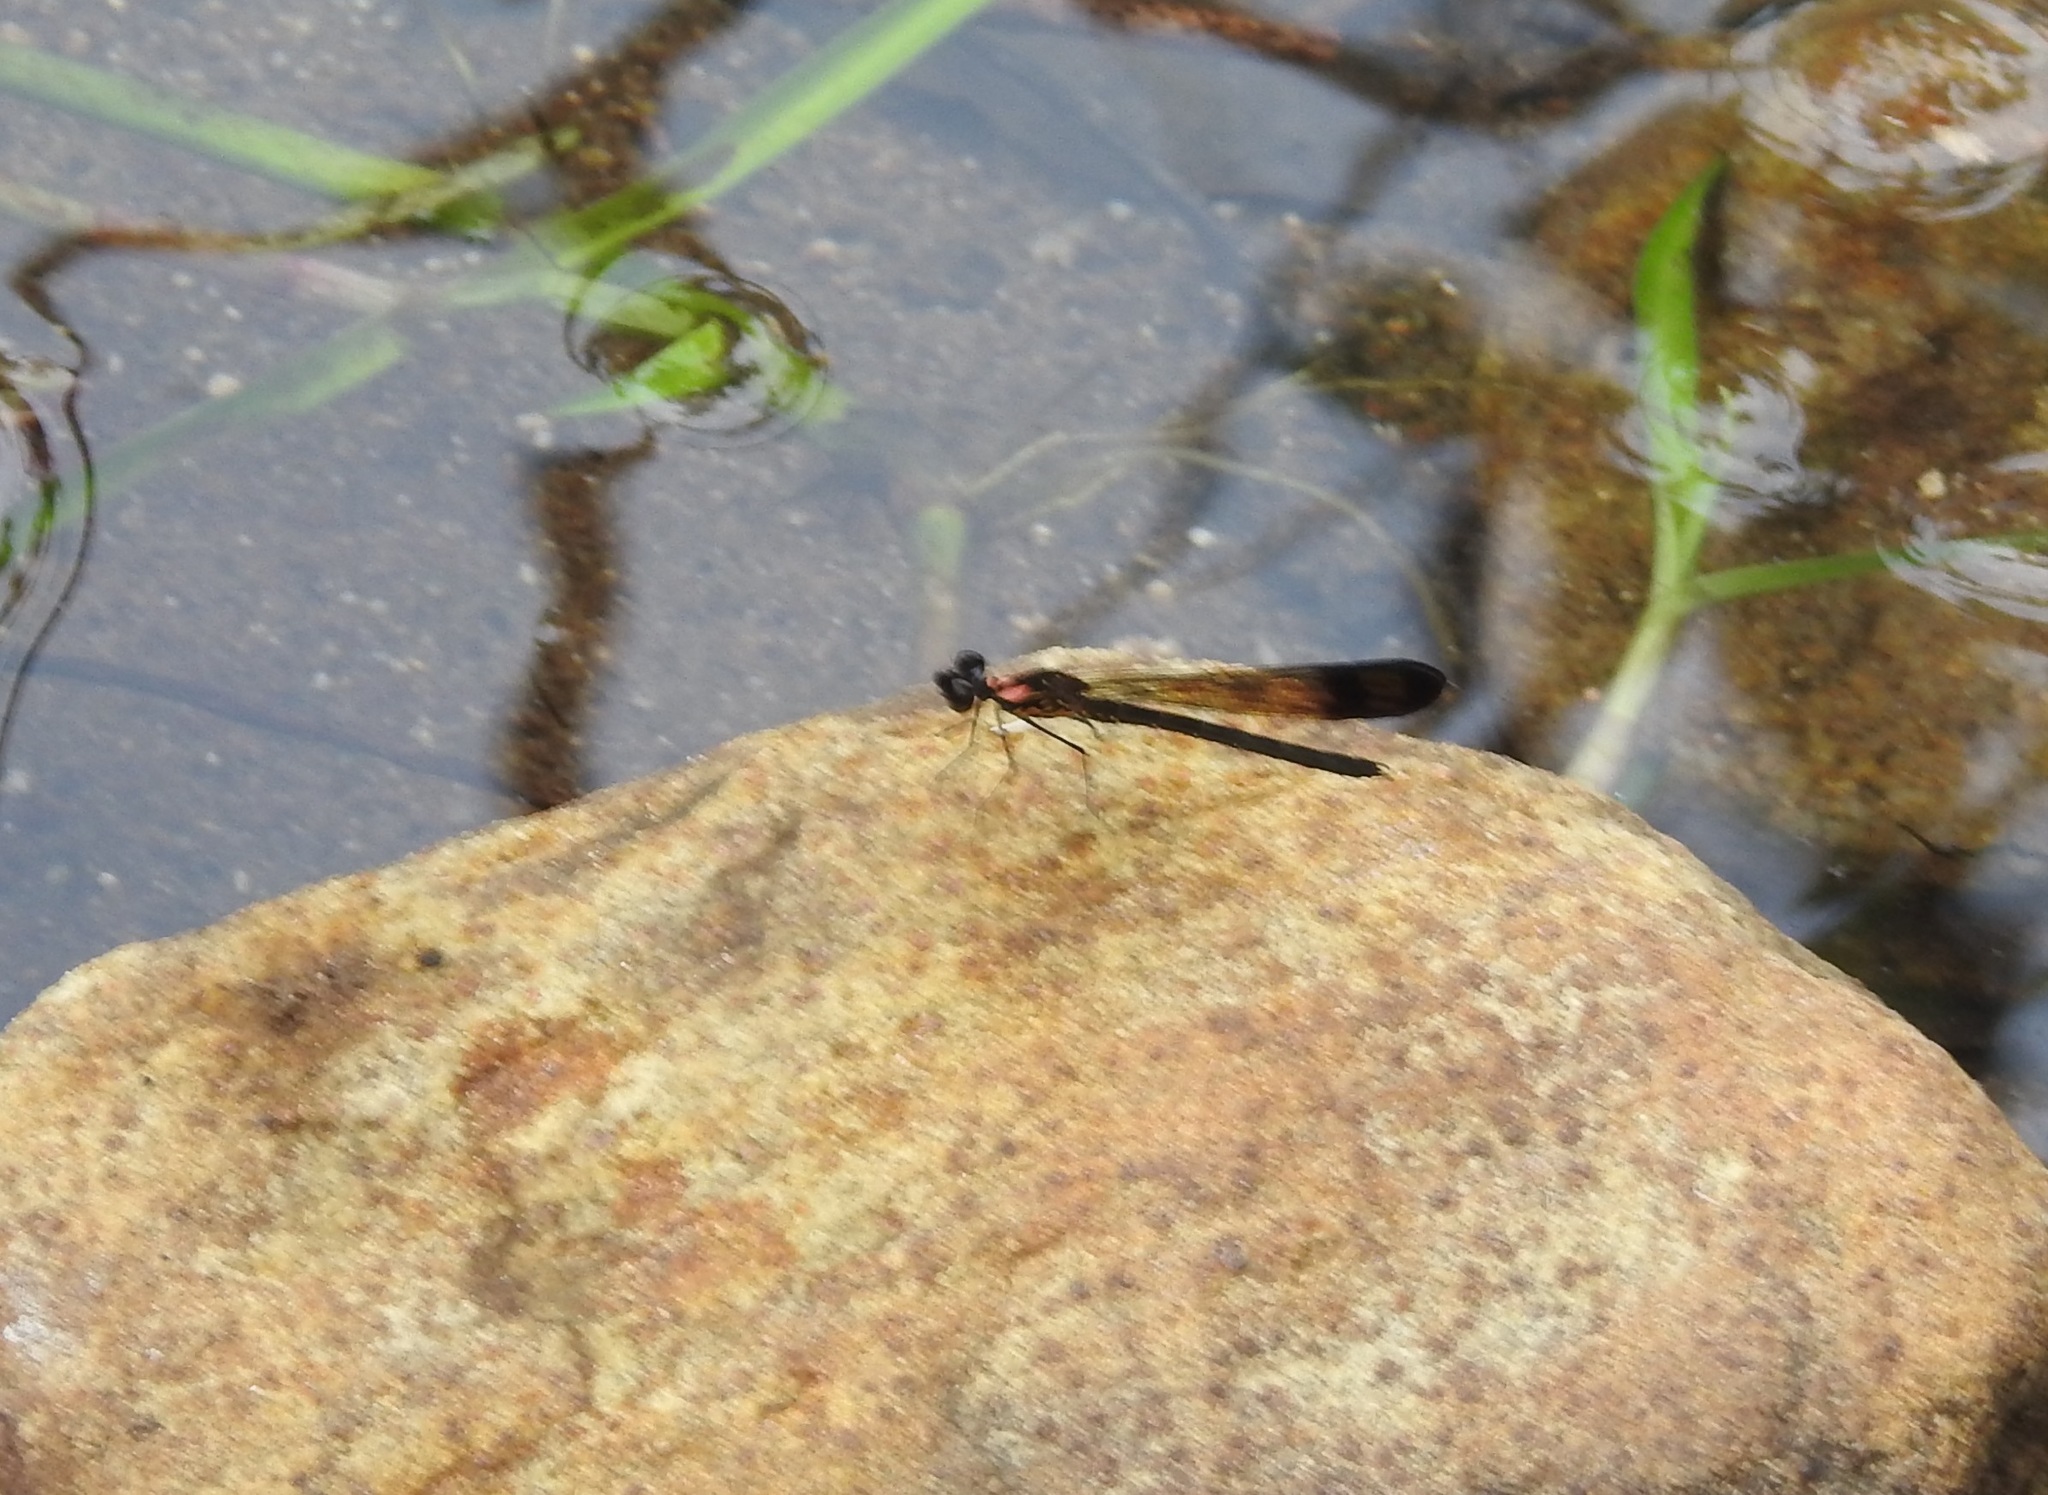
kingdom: Animalia
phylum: Arthropoda
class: Insecta
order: Odonata
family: Chlorocyphidae
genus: Heliocypha
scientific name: Heliocypha bisignata
